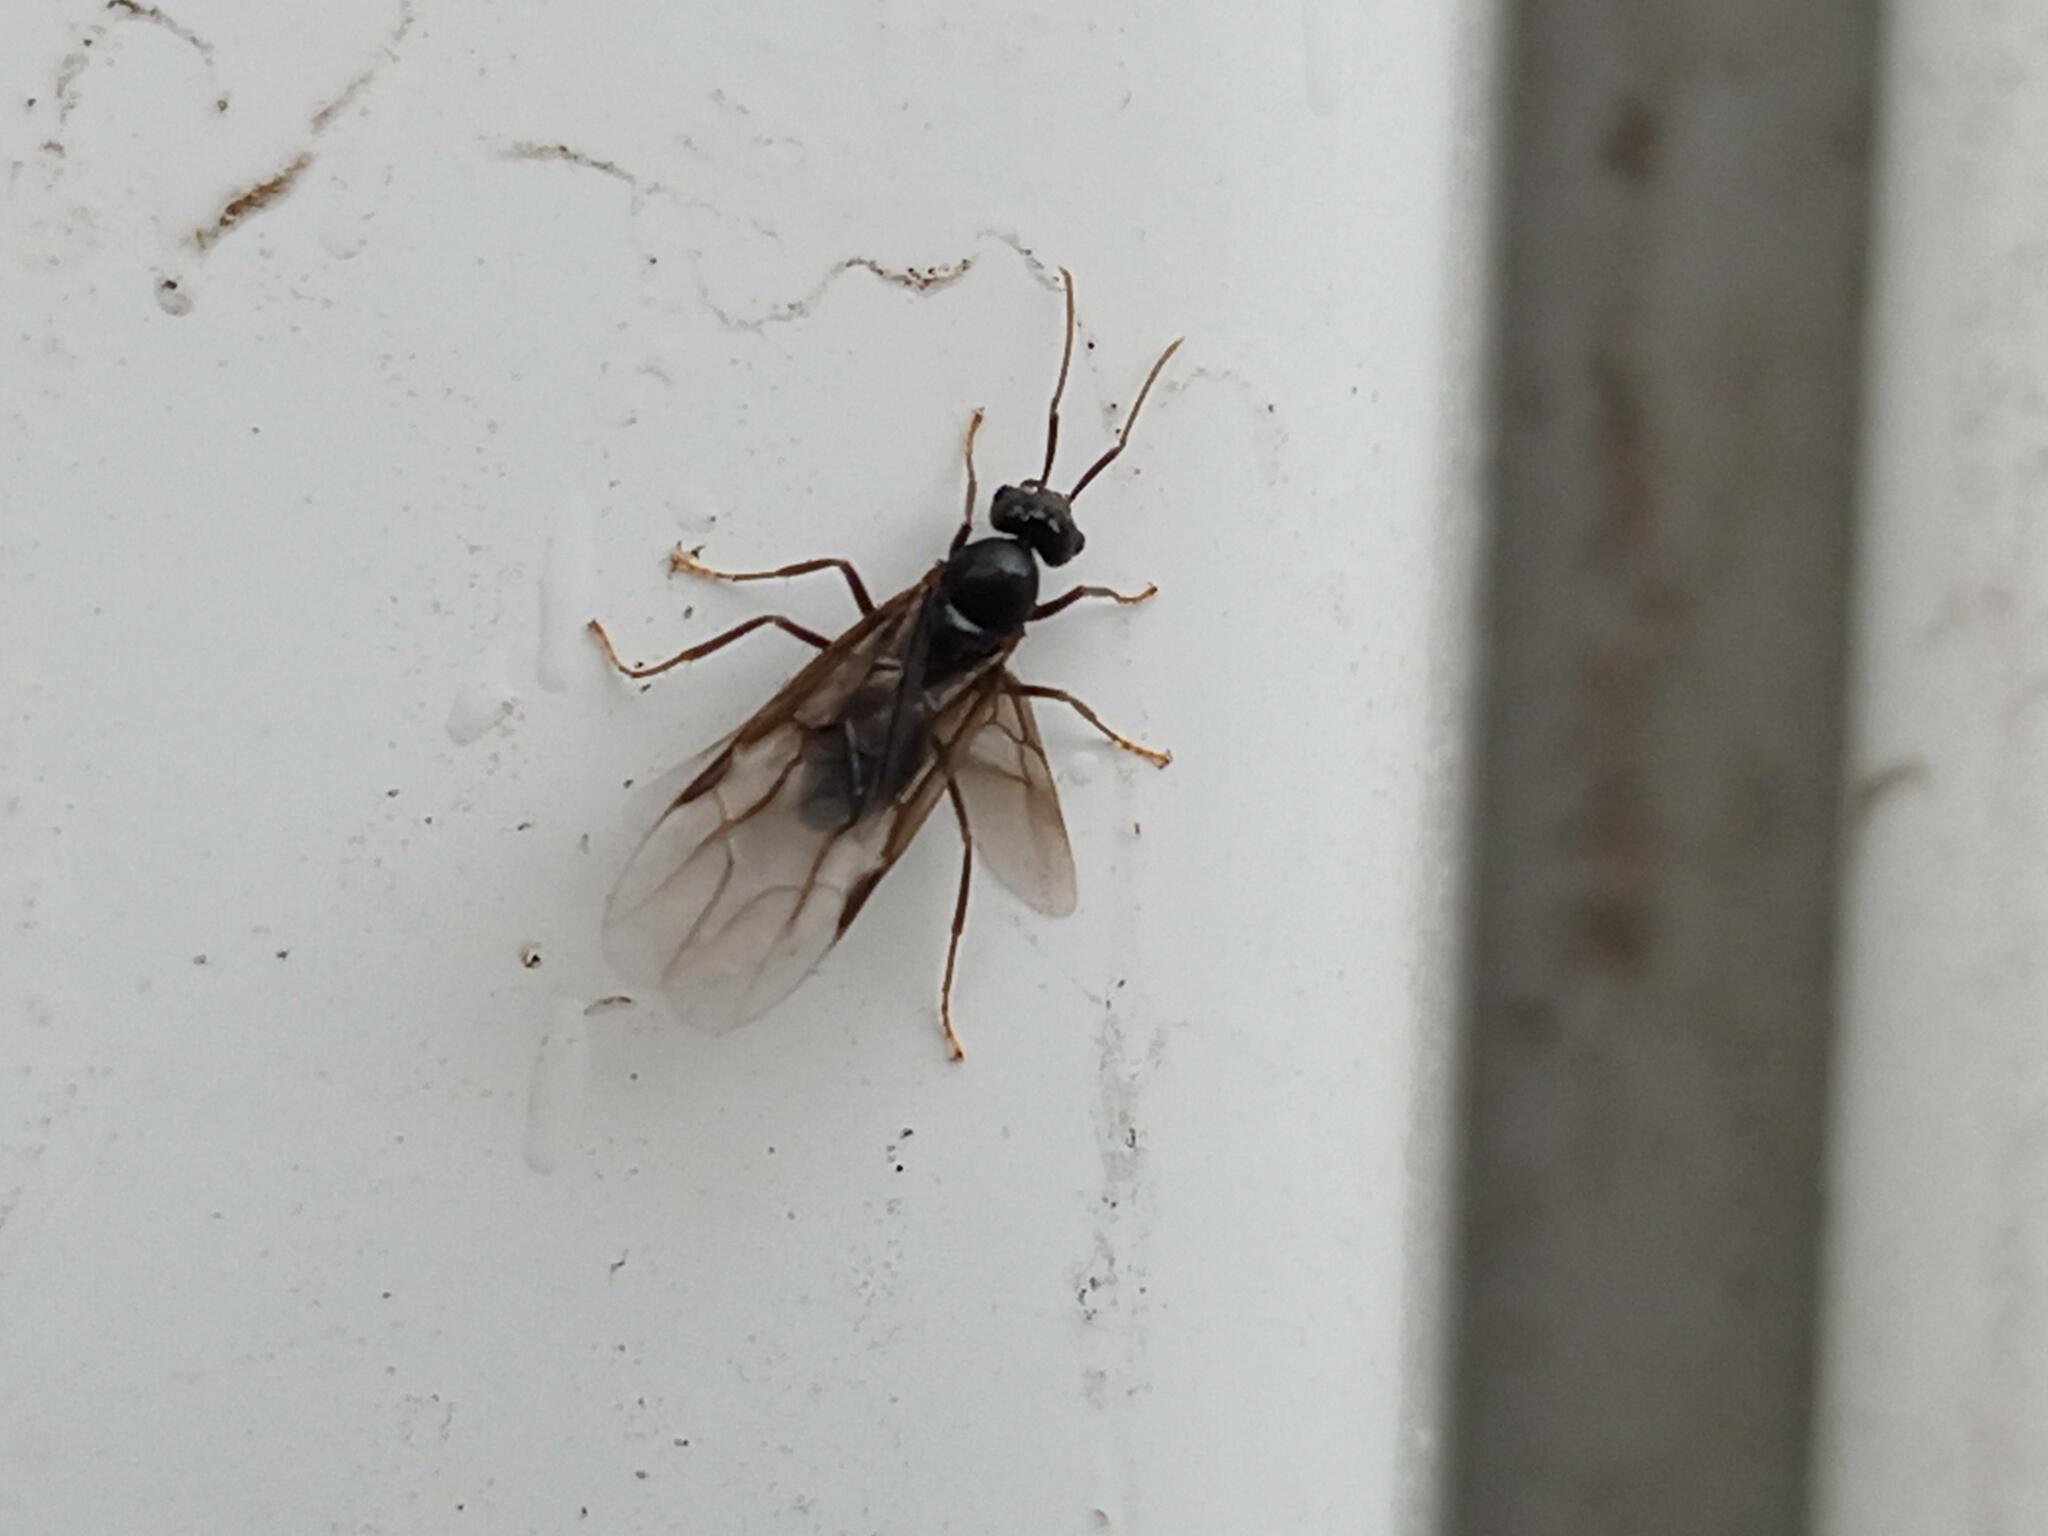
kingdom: Animalia
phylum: Arthropoda
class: Insecta
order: Hymenoptera
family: Formicidae
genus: Lasius
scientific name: Lasius fuliginosus
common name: Jet ant
